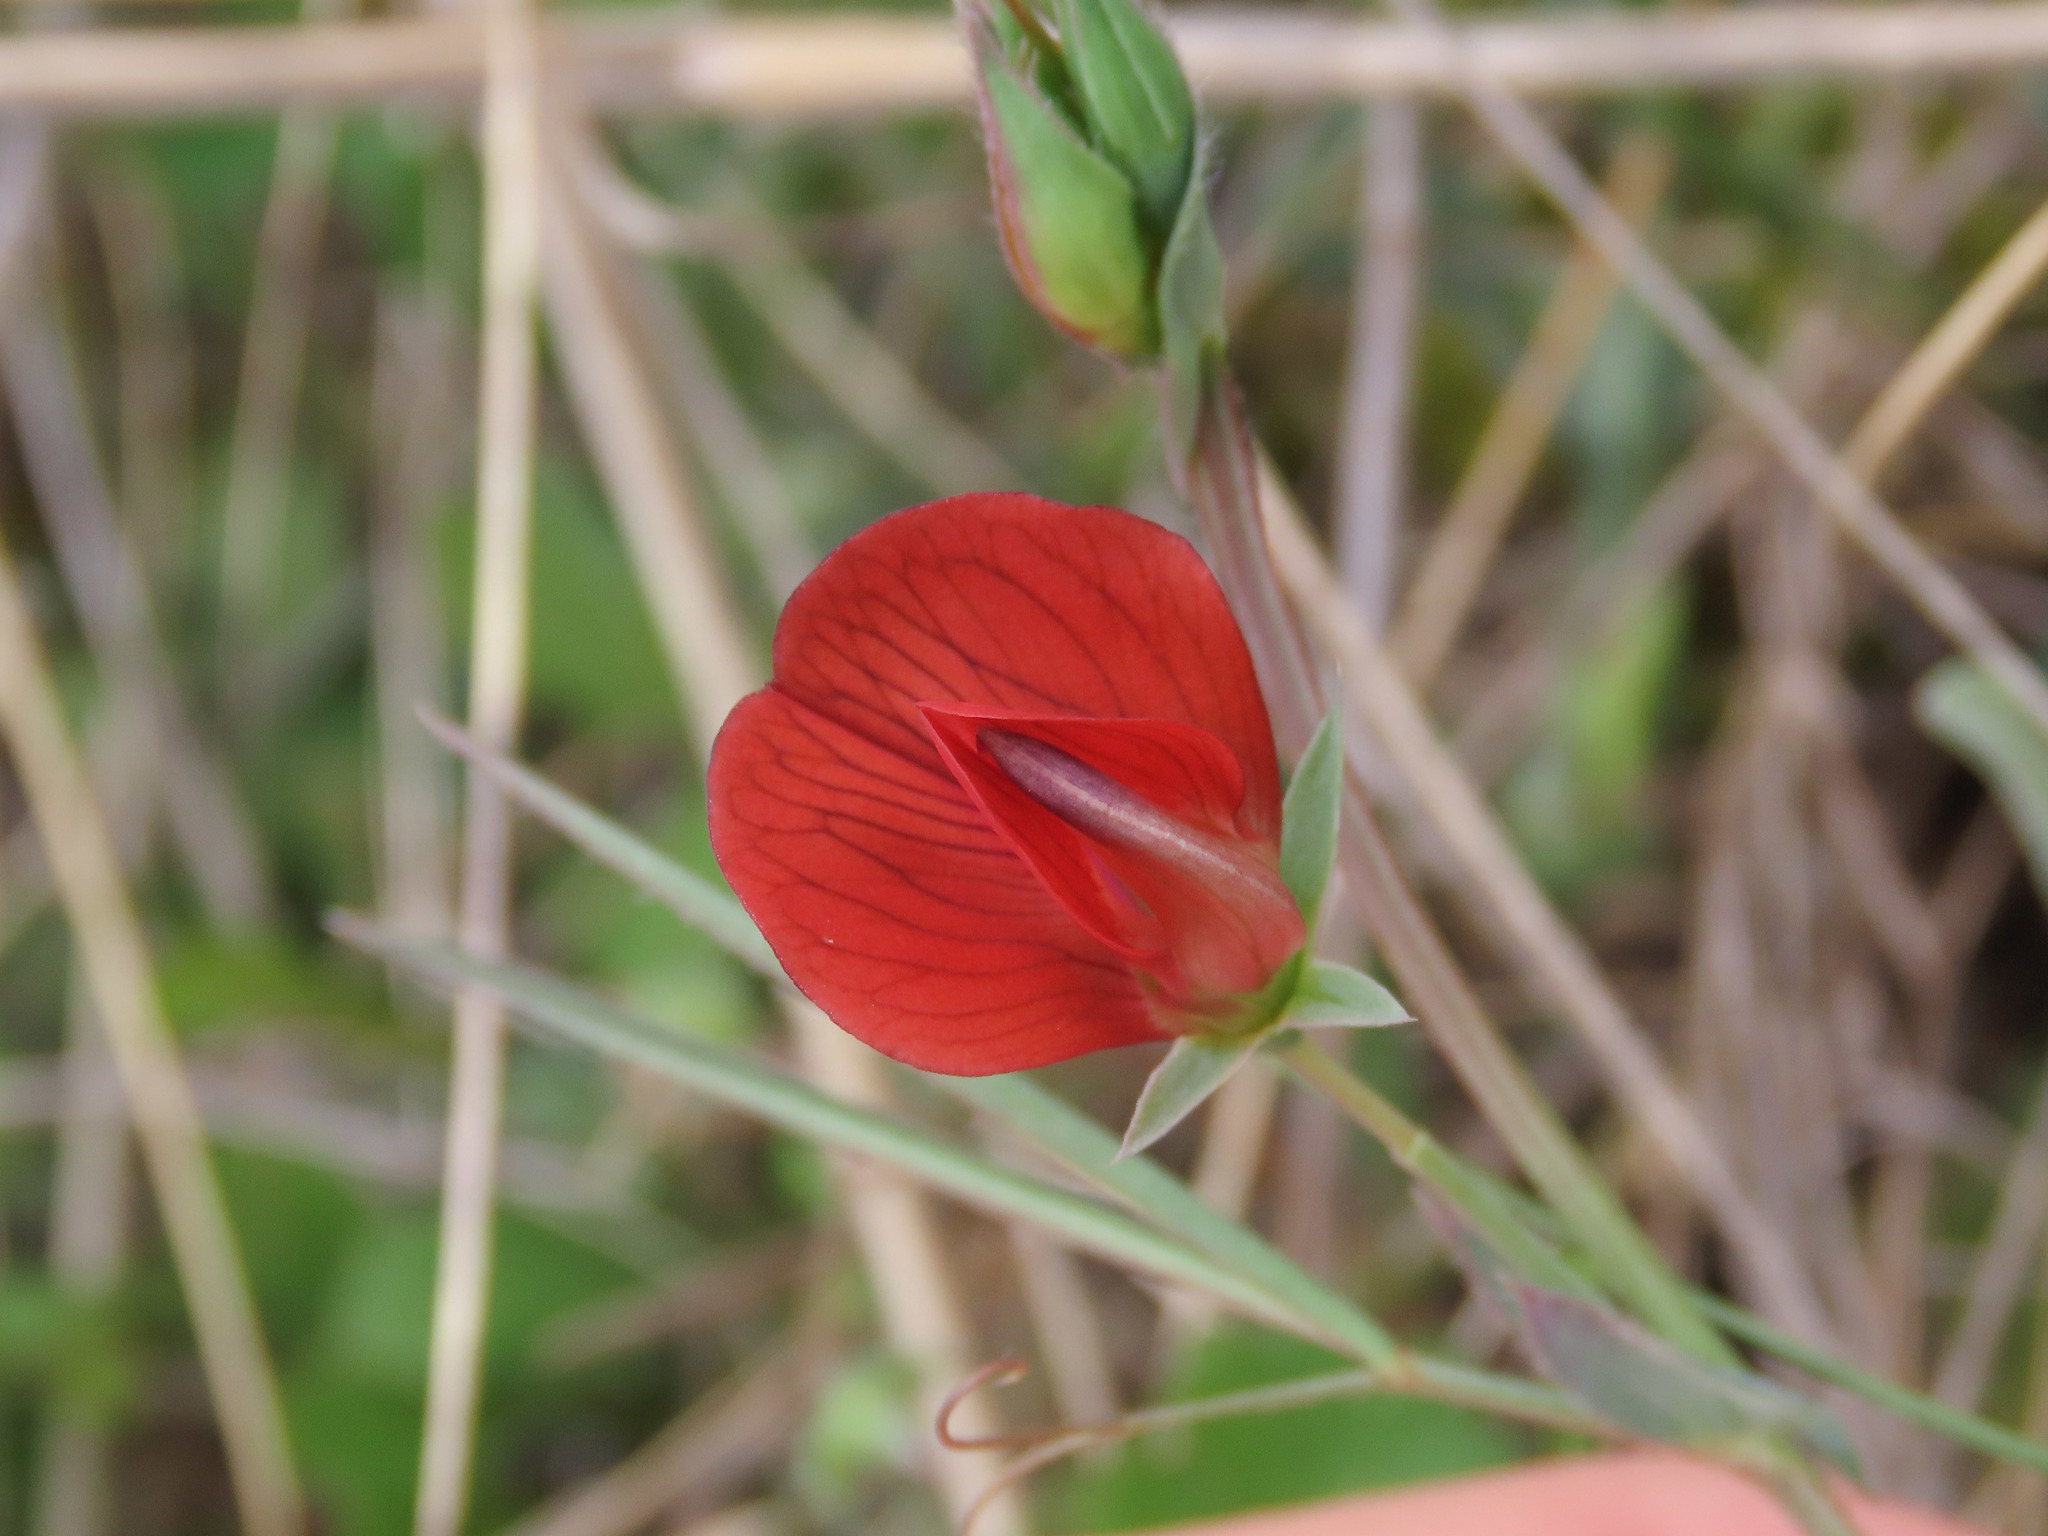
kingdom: Plantae
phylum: Tracheophyta
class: Magnoliopsida
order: Fabales
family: Fabaceae
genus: Lathyrus
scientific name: Lathyrus cicera
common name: Red vetchling
